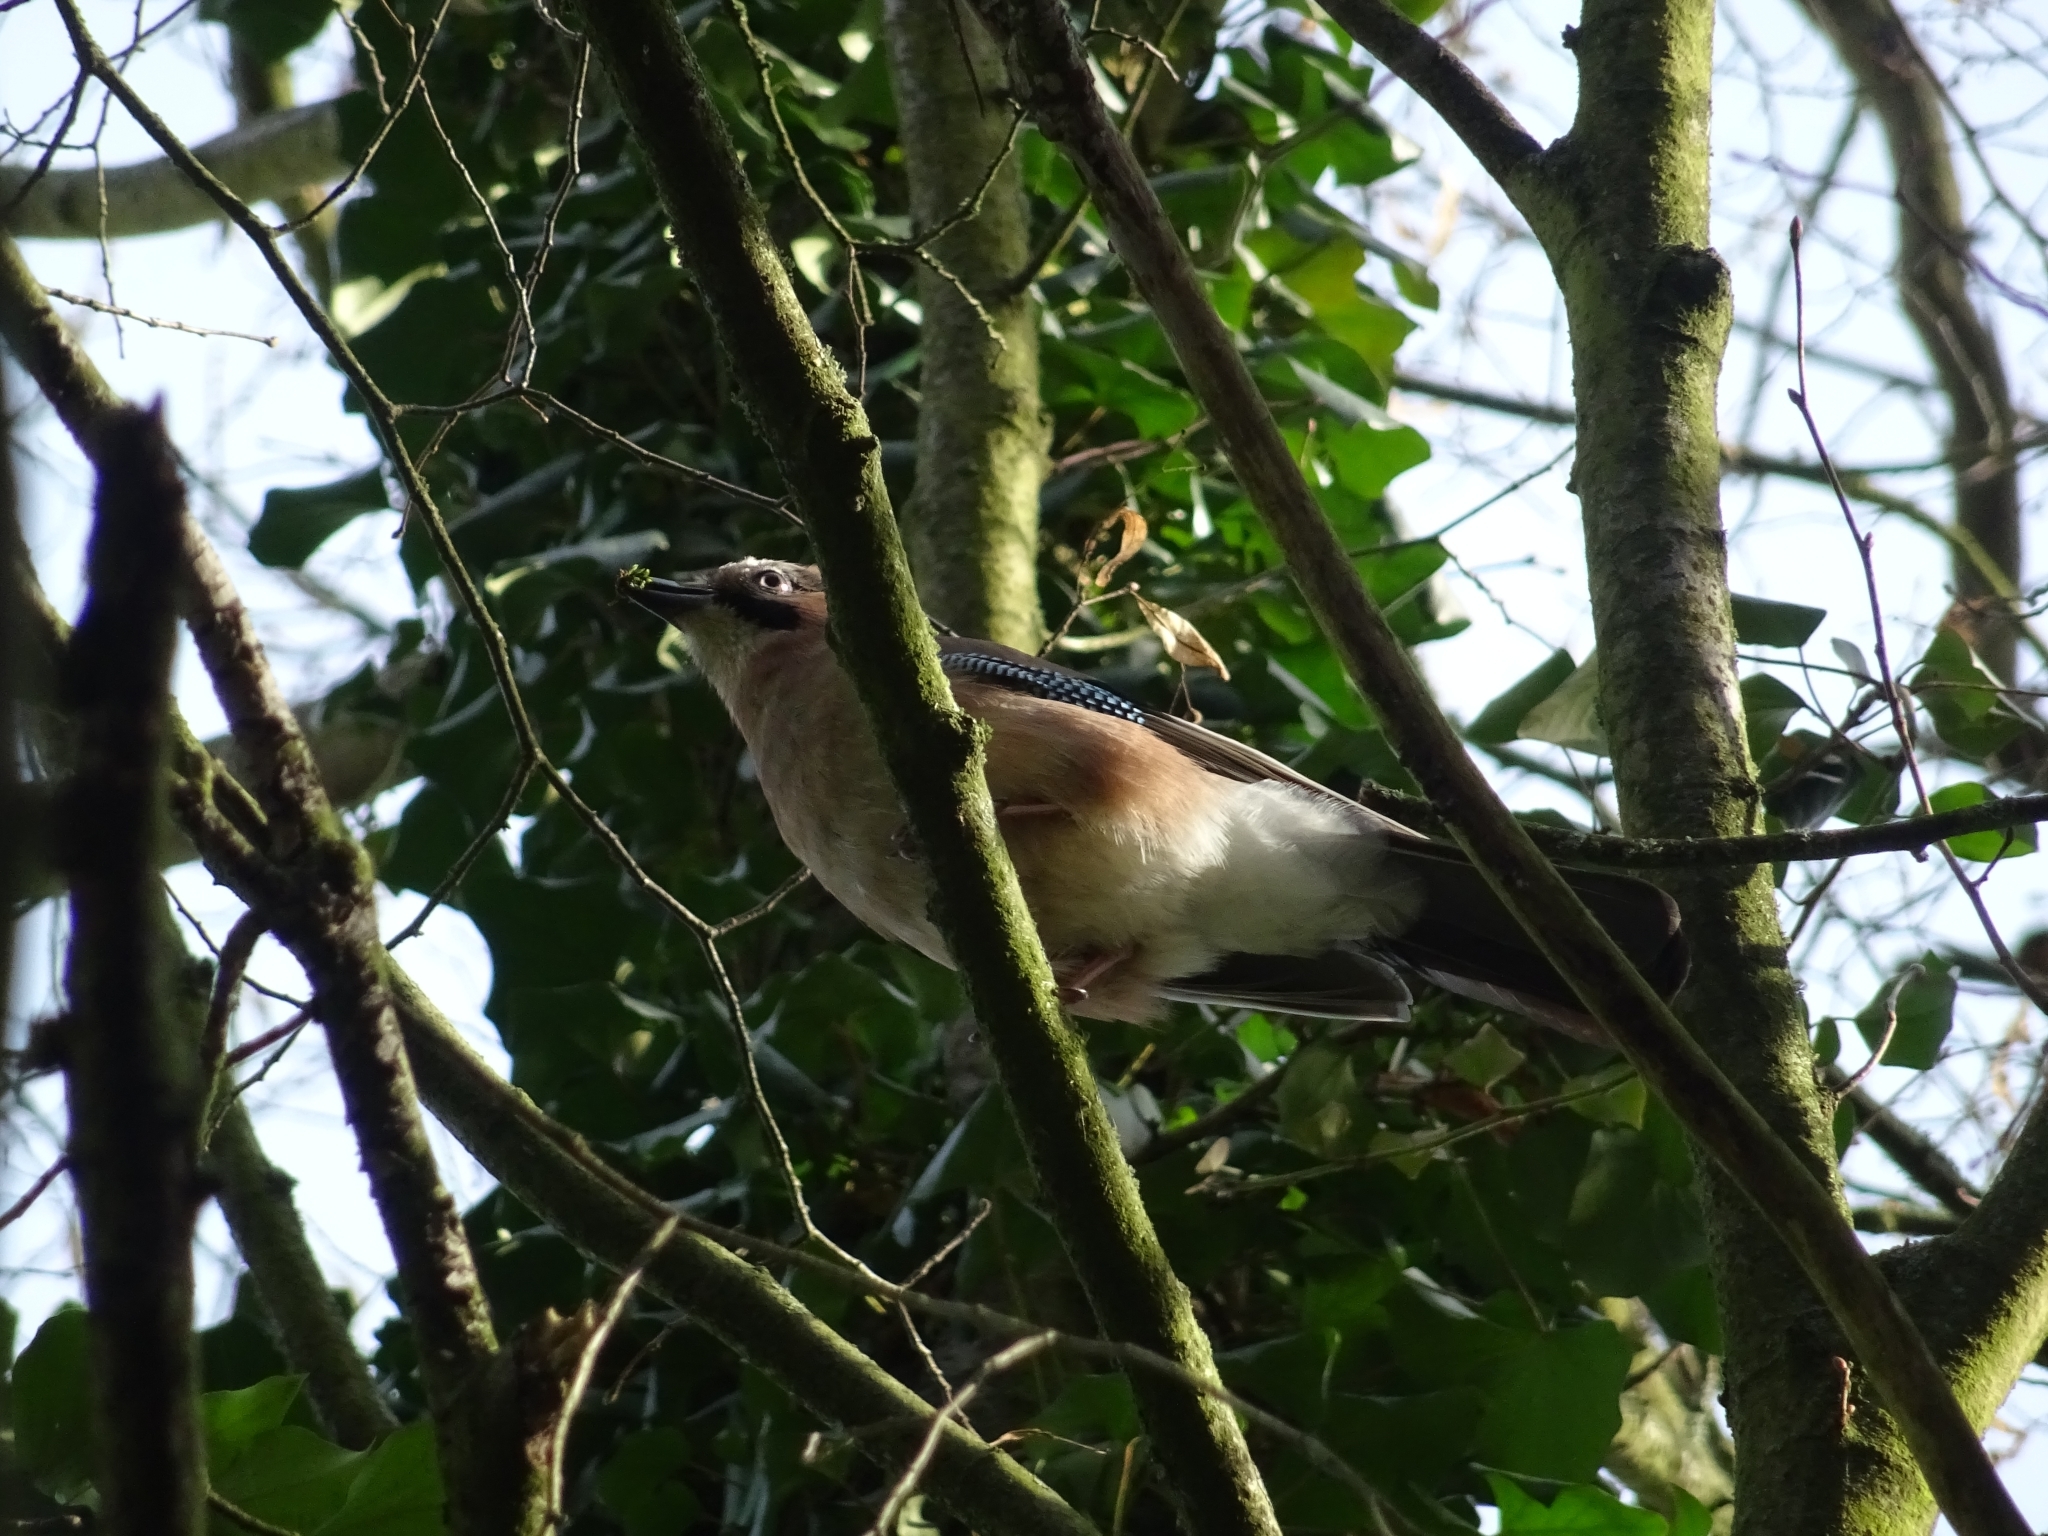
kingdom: Animalia
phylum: Chordata
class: Aves
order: Passeriformes
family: Corvidae
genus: Garrulus
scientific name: Garrulus glandarius
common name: Eurasian jay
